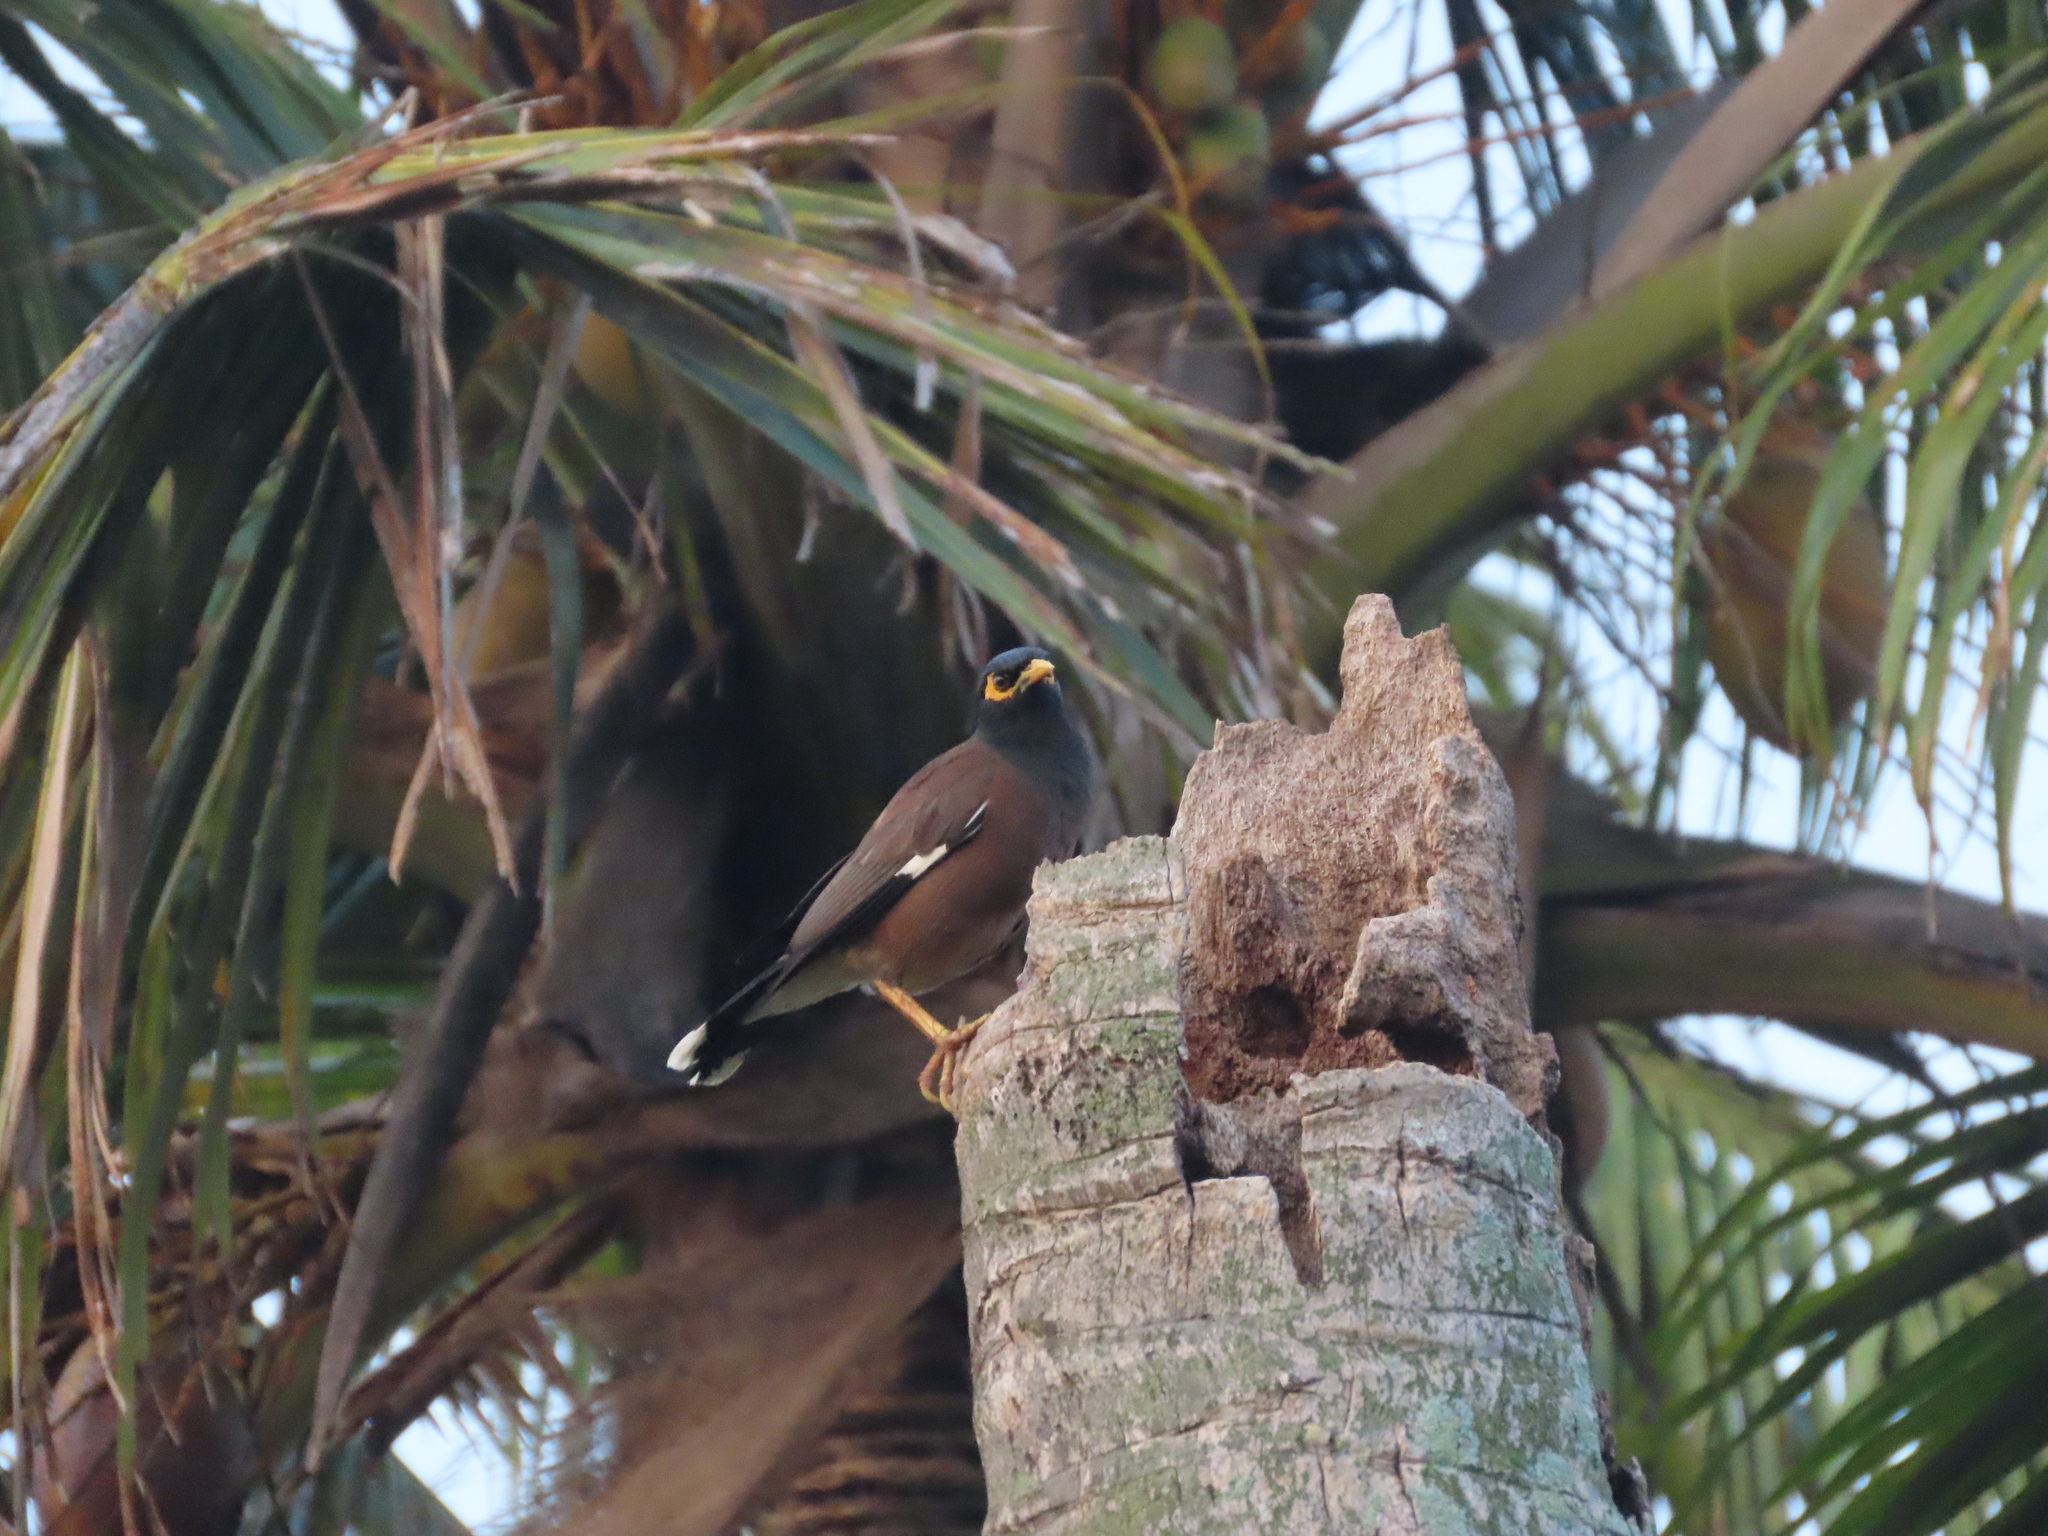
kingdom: Animalia
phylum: Chordata
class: Aves
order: Passeriformes
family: Sturnidae
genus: Acridotheres
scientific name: Acridotheres tristis
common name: Common myna
